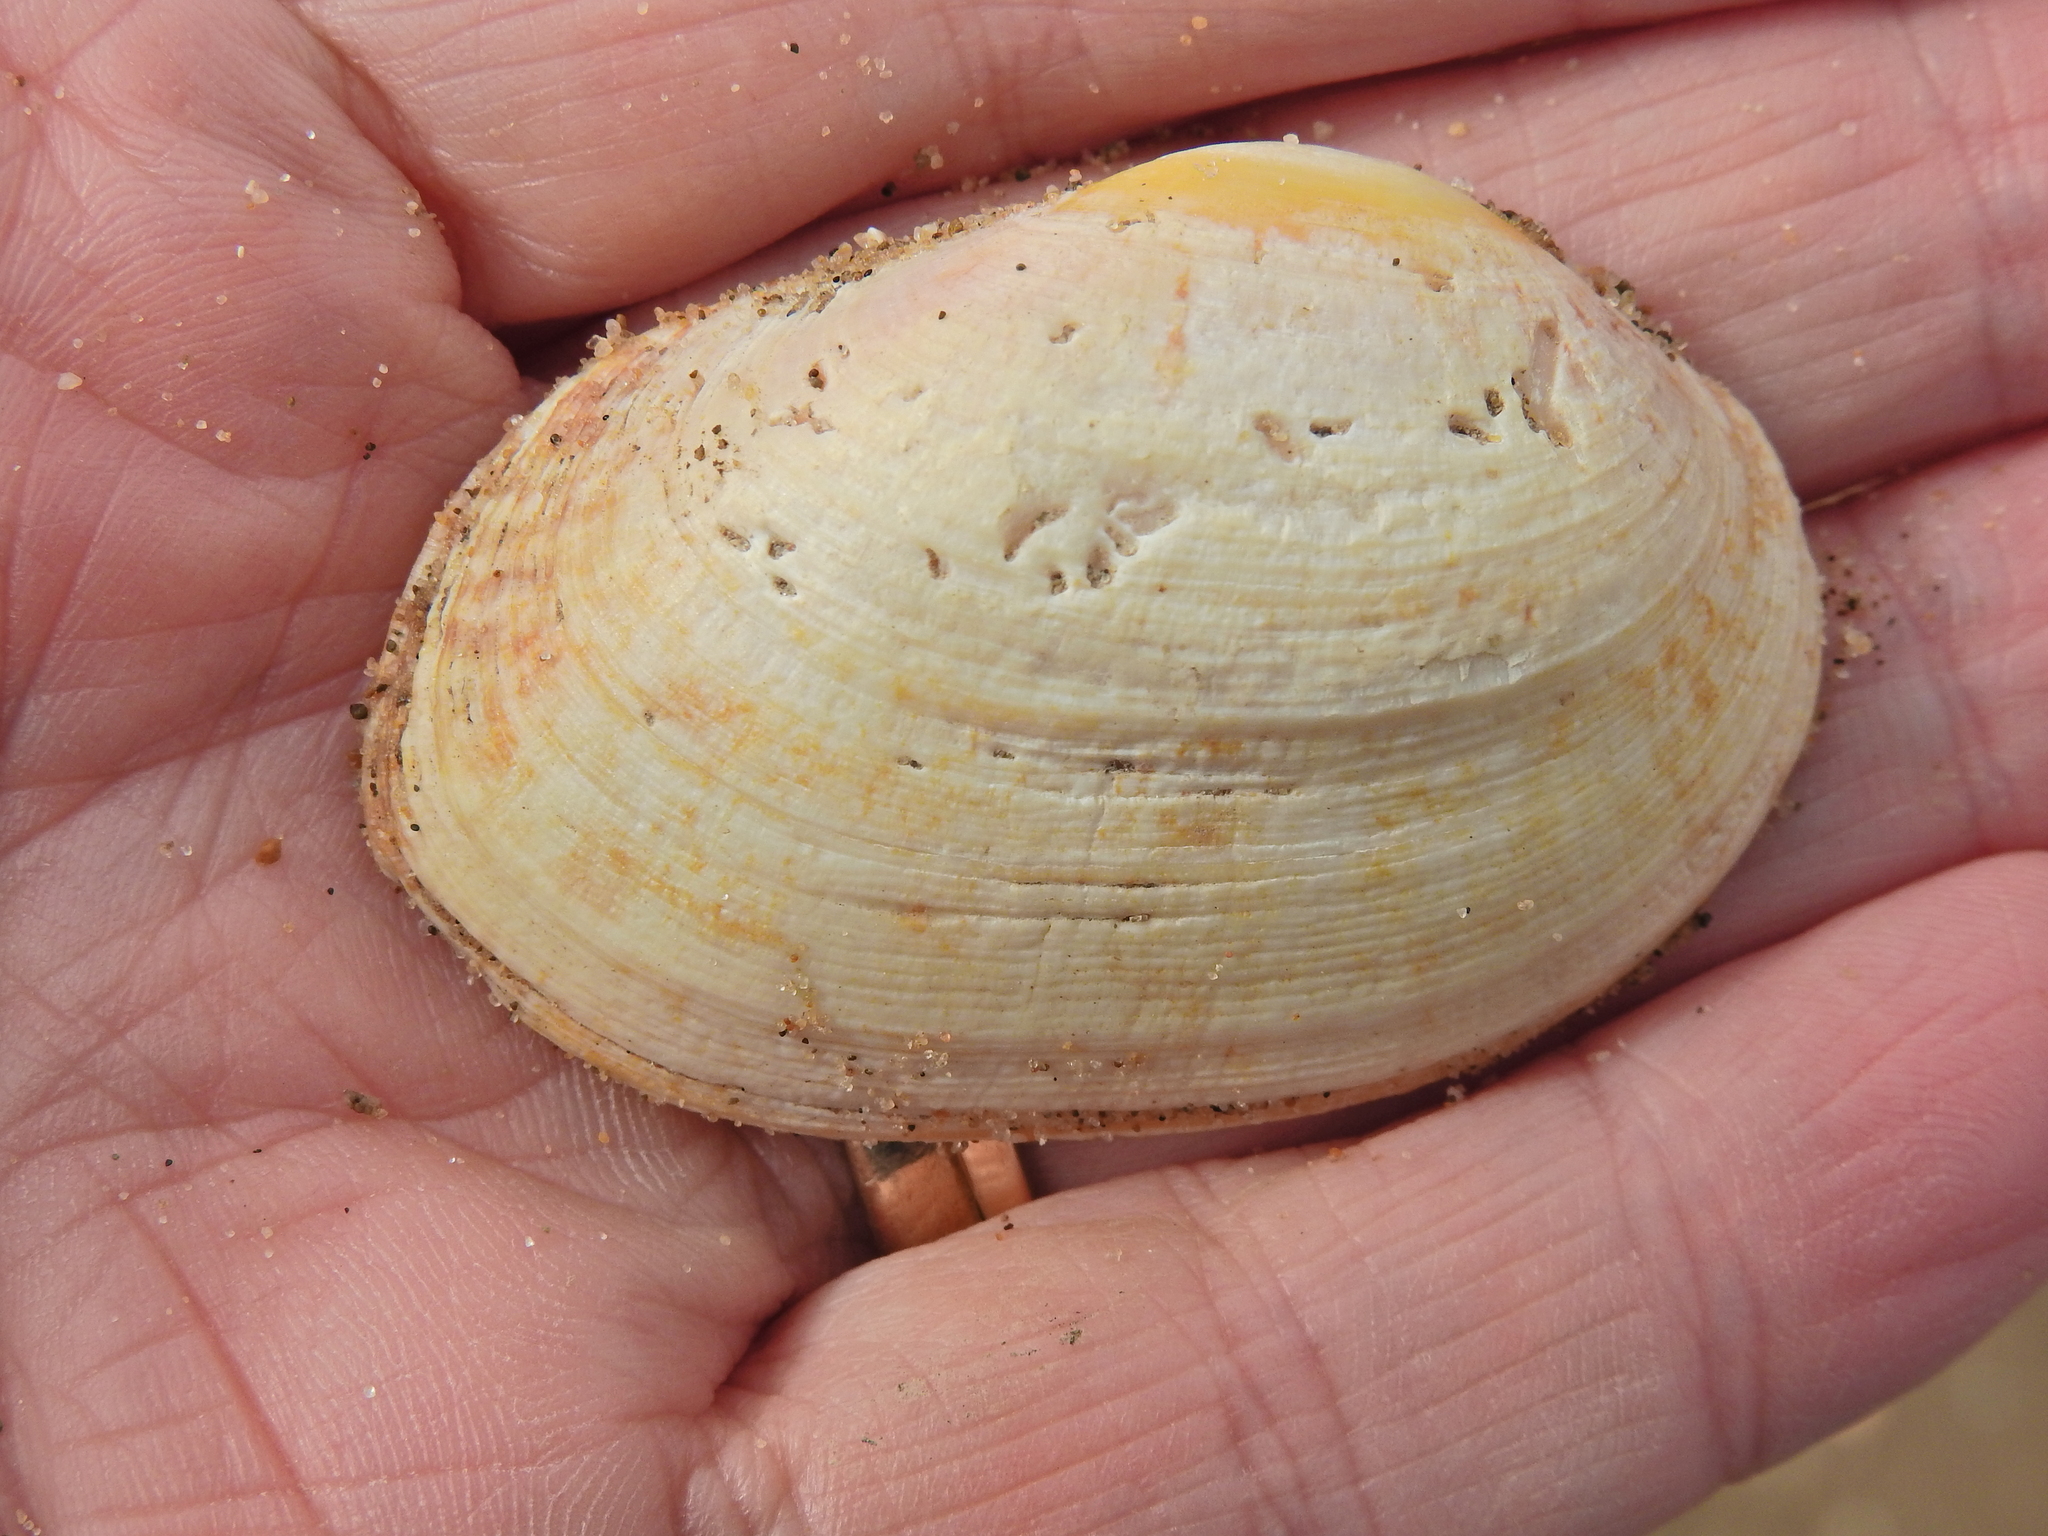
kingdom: Animalia
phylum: Mollusca
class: Bivalvia
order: Venerida
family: Veneridae
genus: Venerupis
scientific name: Venerupis corrugata
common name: Pullet carpet shell
